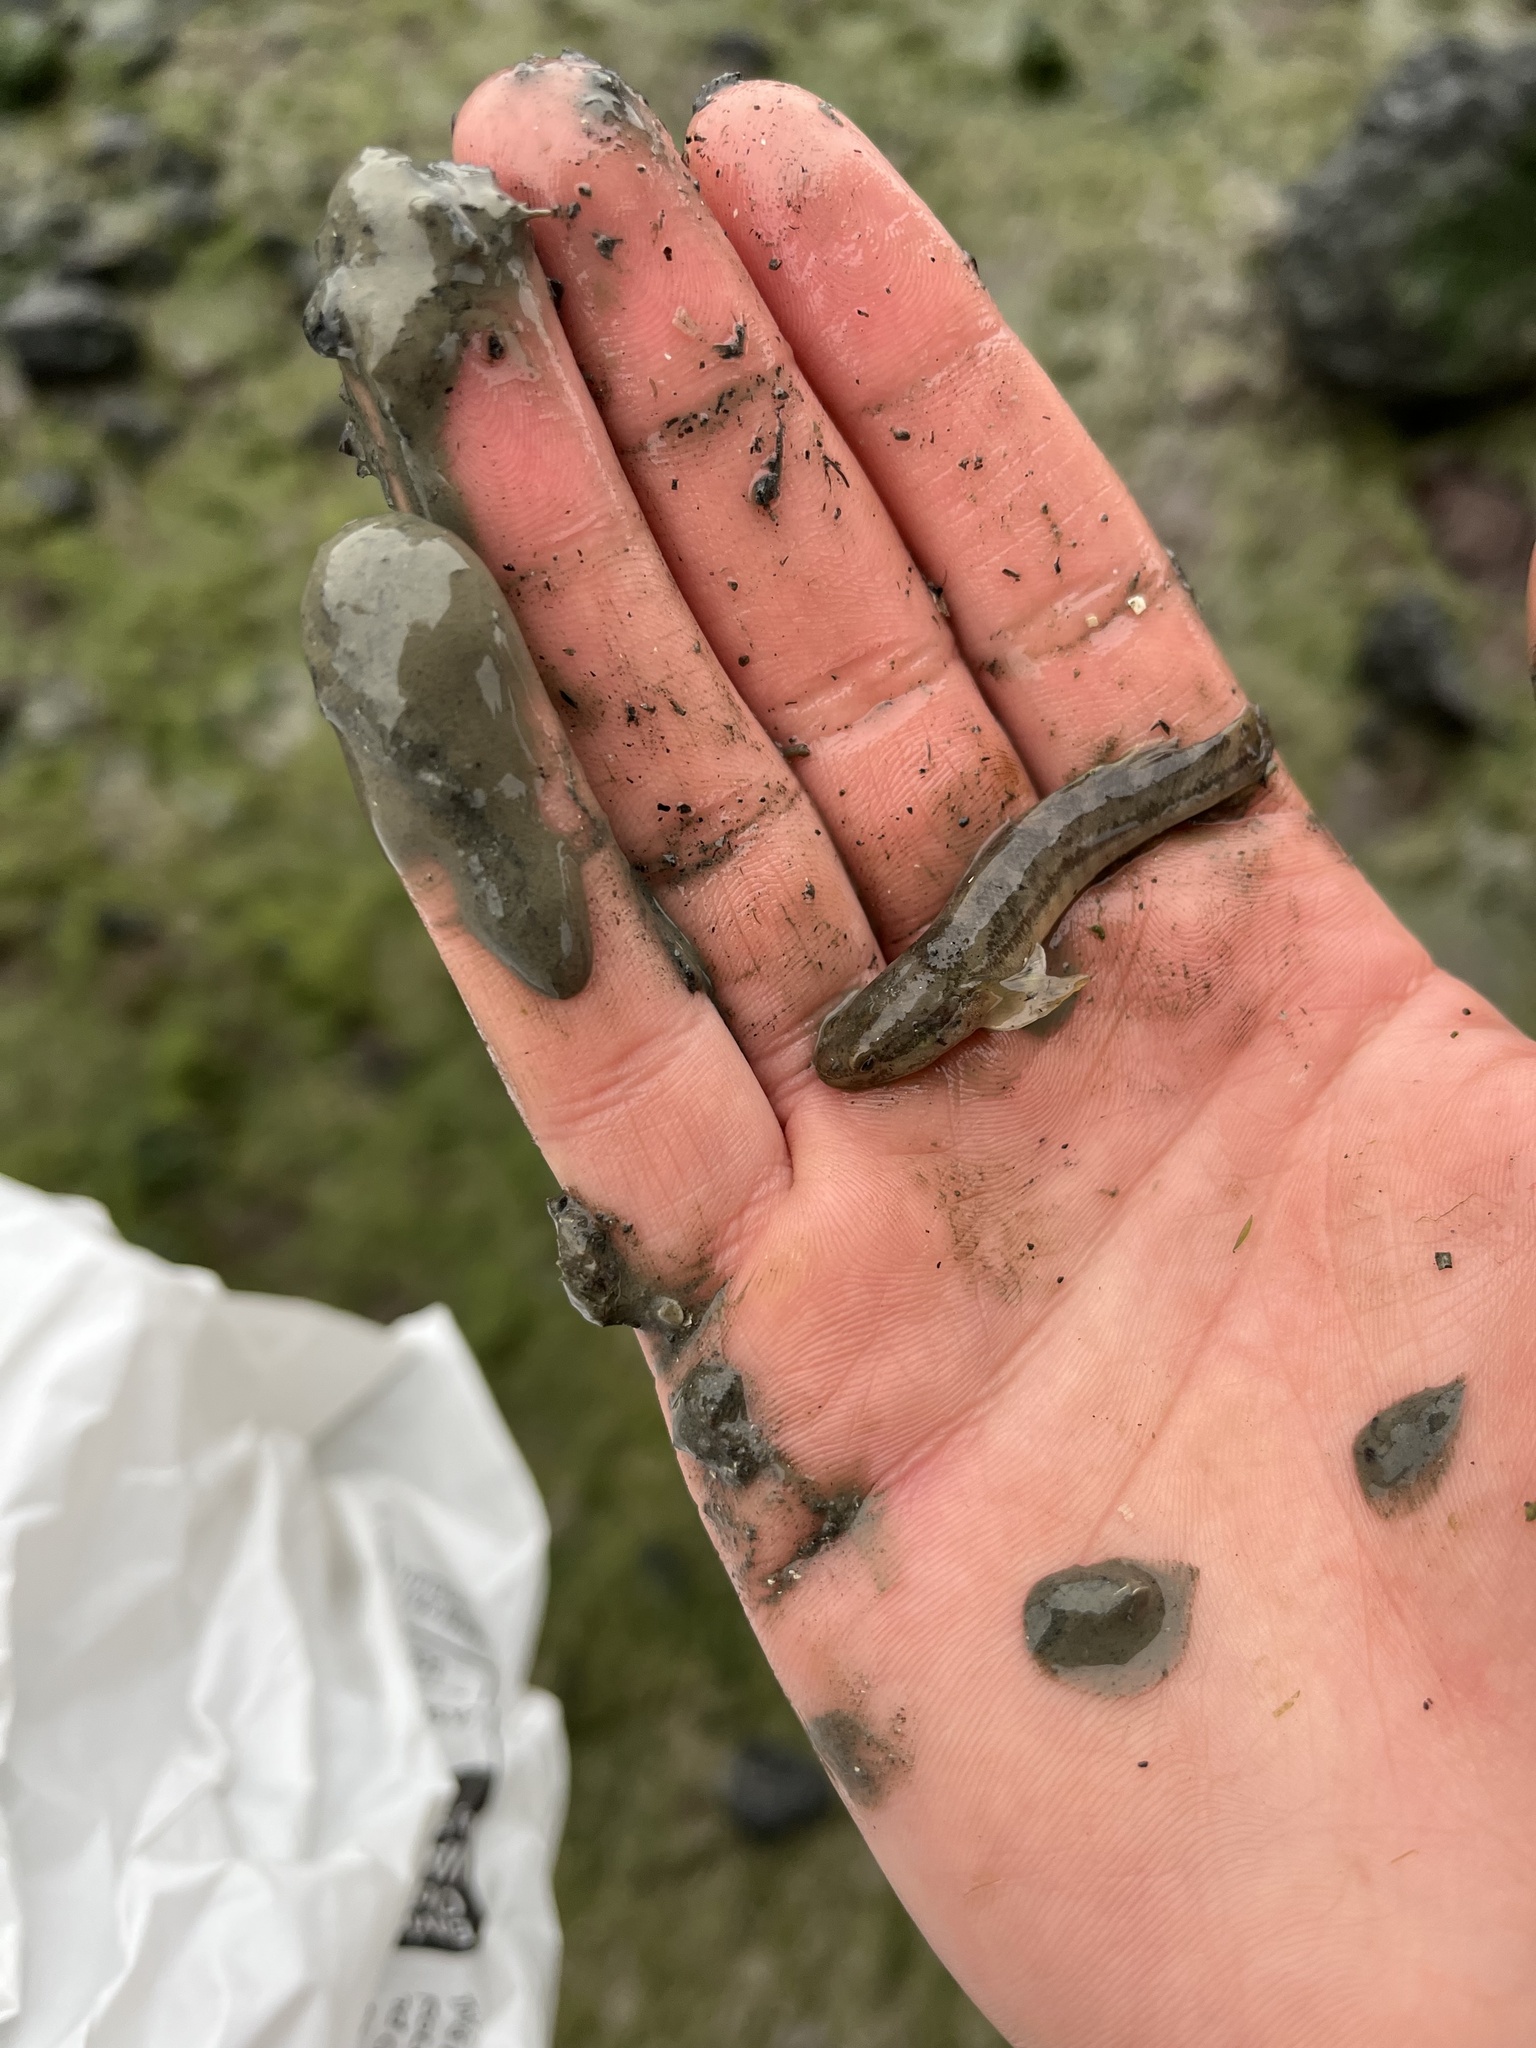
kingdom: Animalia
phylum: Chordata
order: Perciformes
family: Gobiidae
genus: Tridentiger
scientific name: Tridentiger trigonocephalus
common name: Chameleon goby
